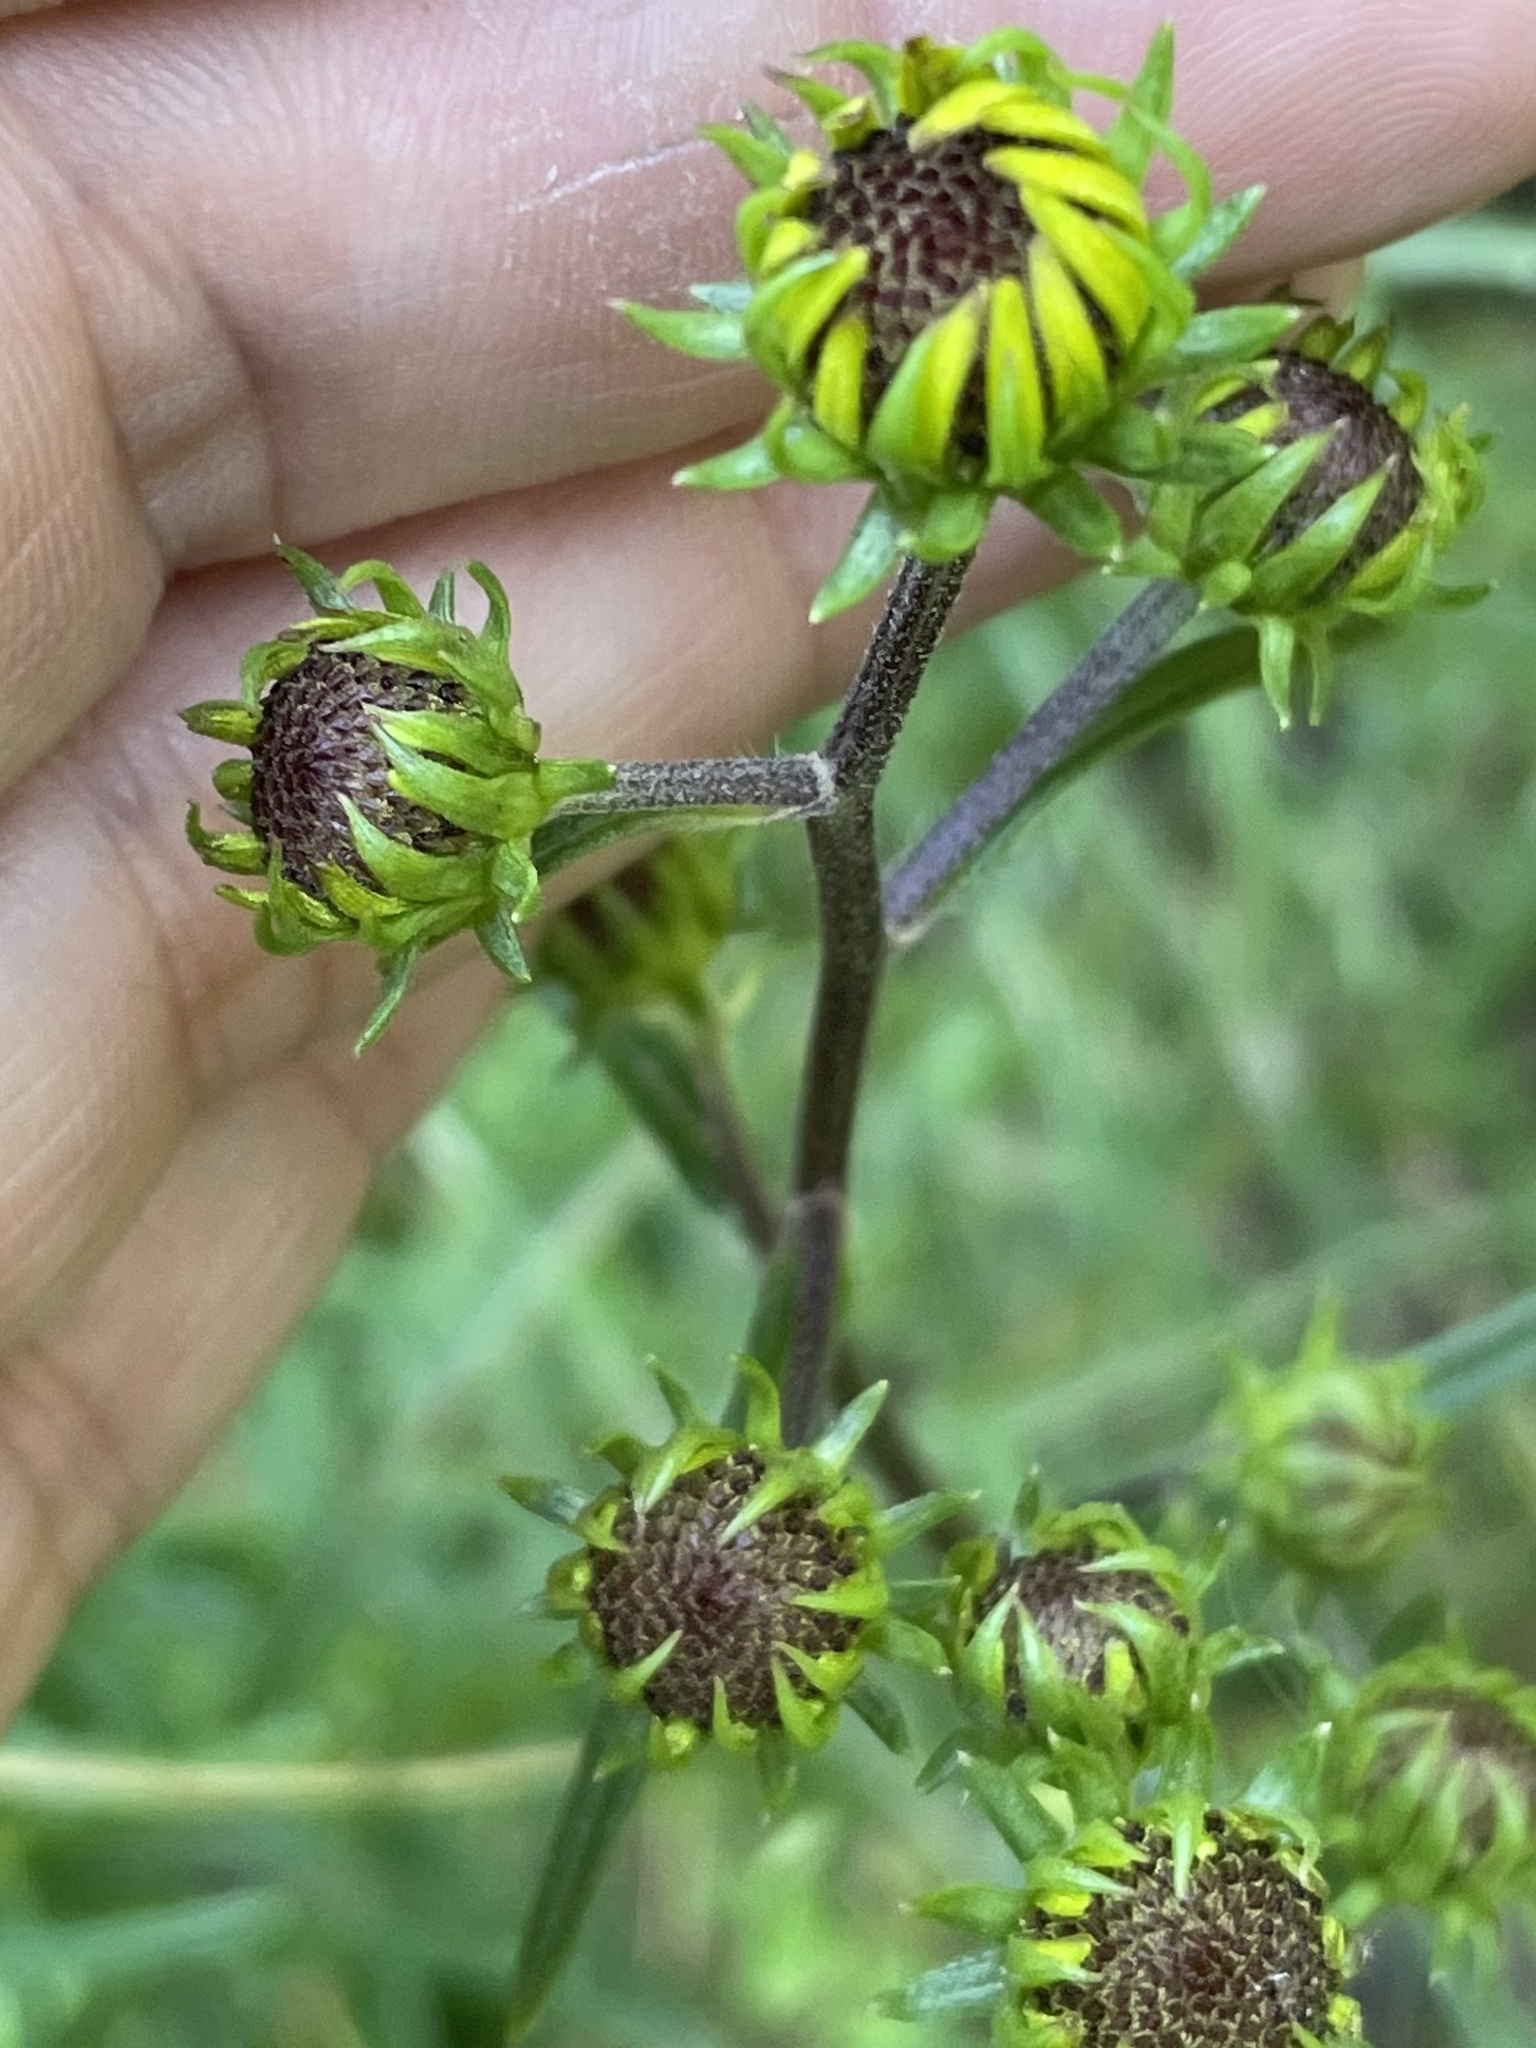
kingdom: Plantae
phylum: Tracheophyta
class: Magnoliopsida
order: Asterales
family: Asteraceae
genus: Helianthus
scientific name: Helianthus angustifolius
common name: Swamp sunflower
